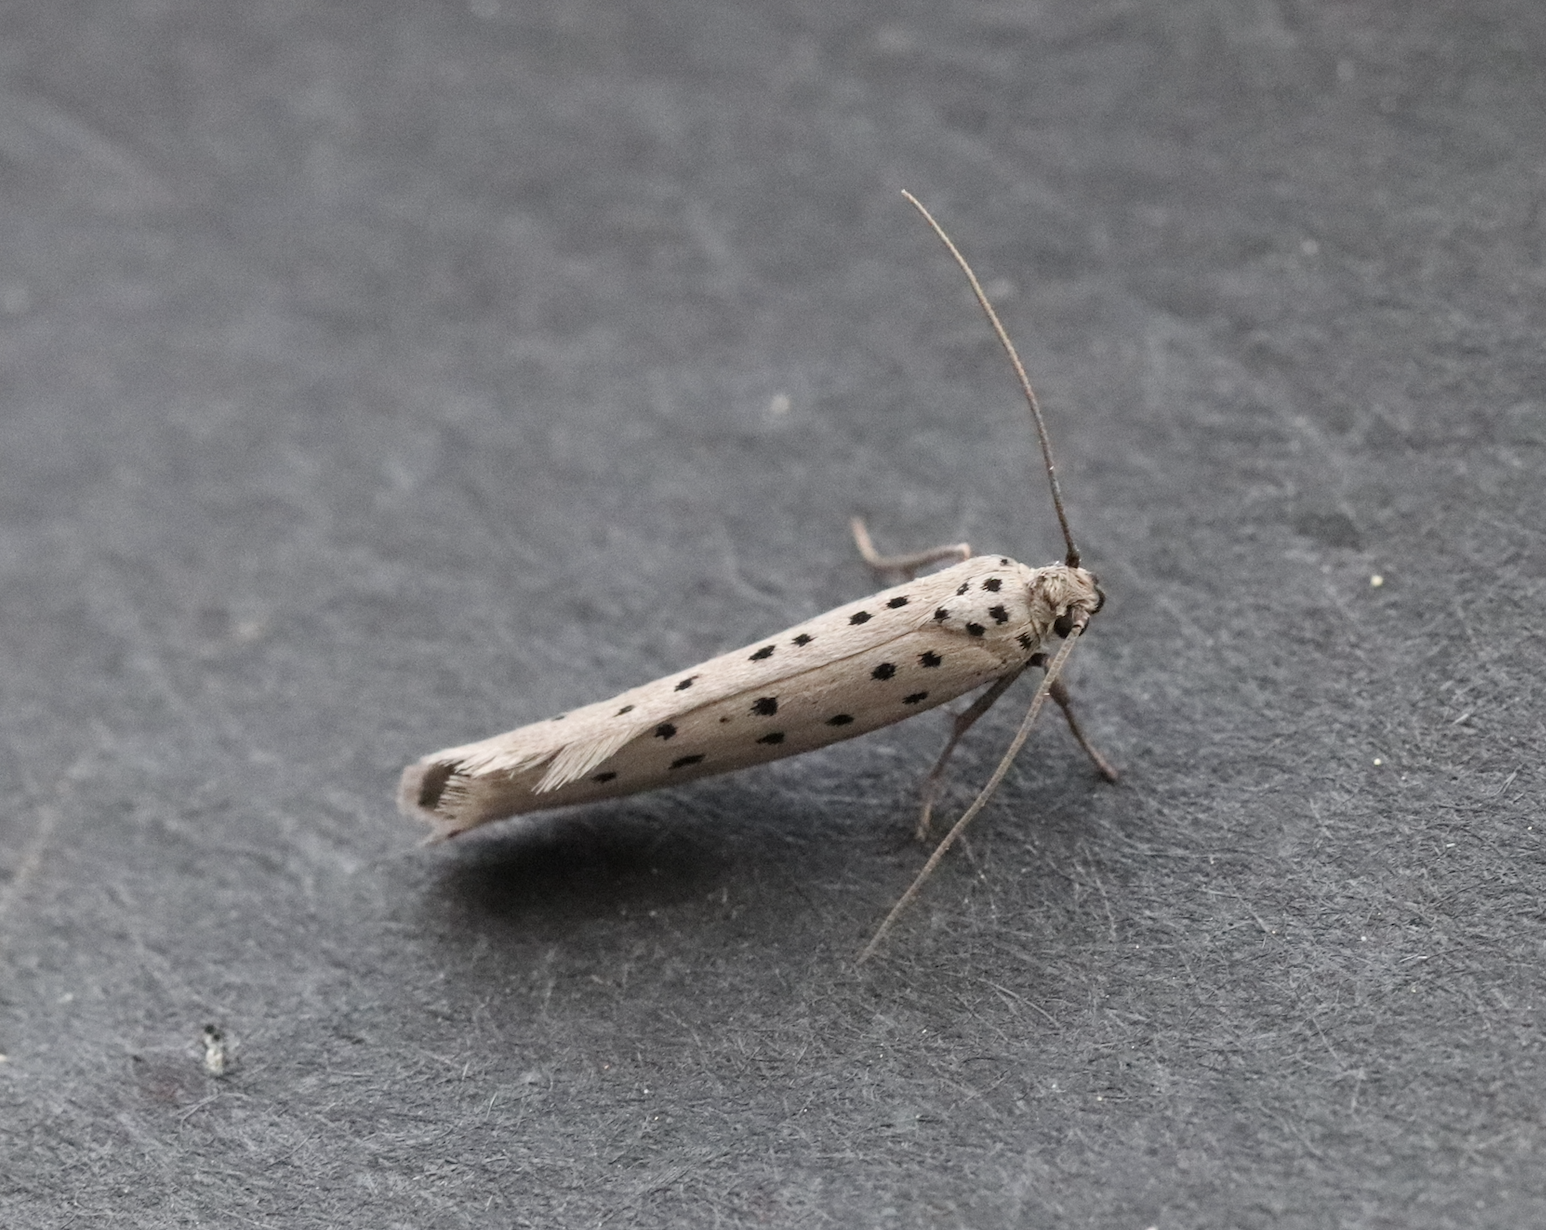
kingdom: Animalia
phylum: Arthropoda
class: Insecta
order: Lepidoptera
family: Yponomeutidae
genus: Yponomeuta
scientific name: Yponomeuta vigintipunctata
